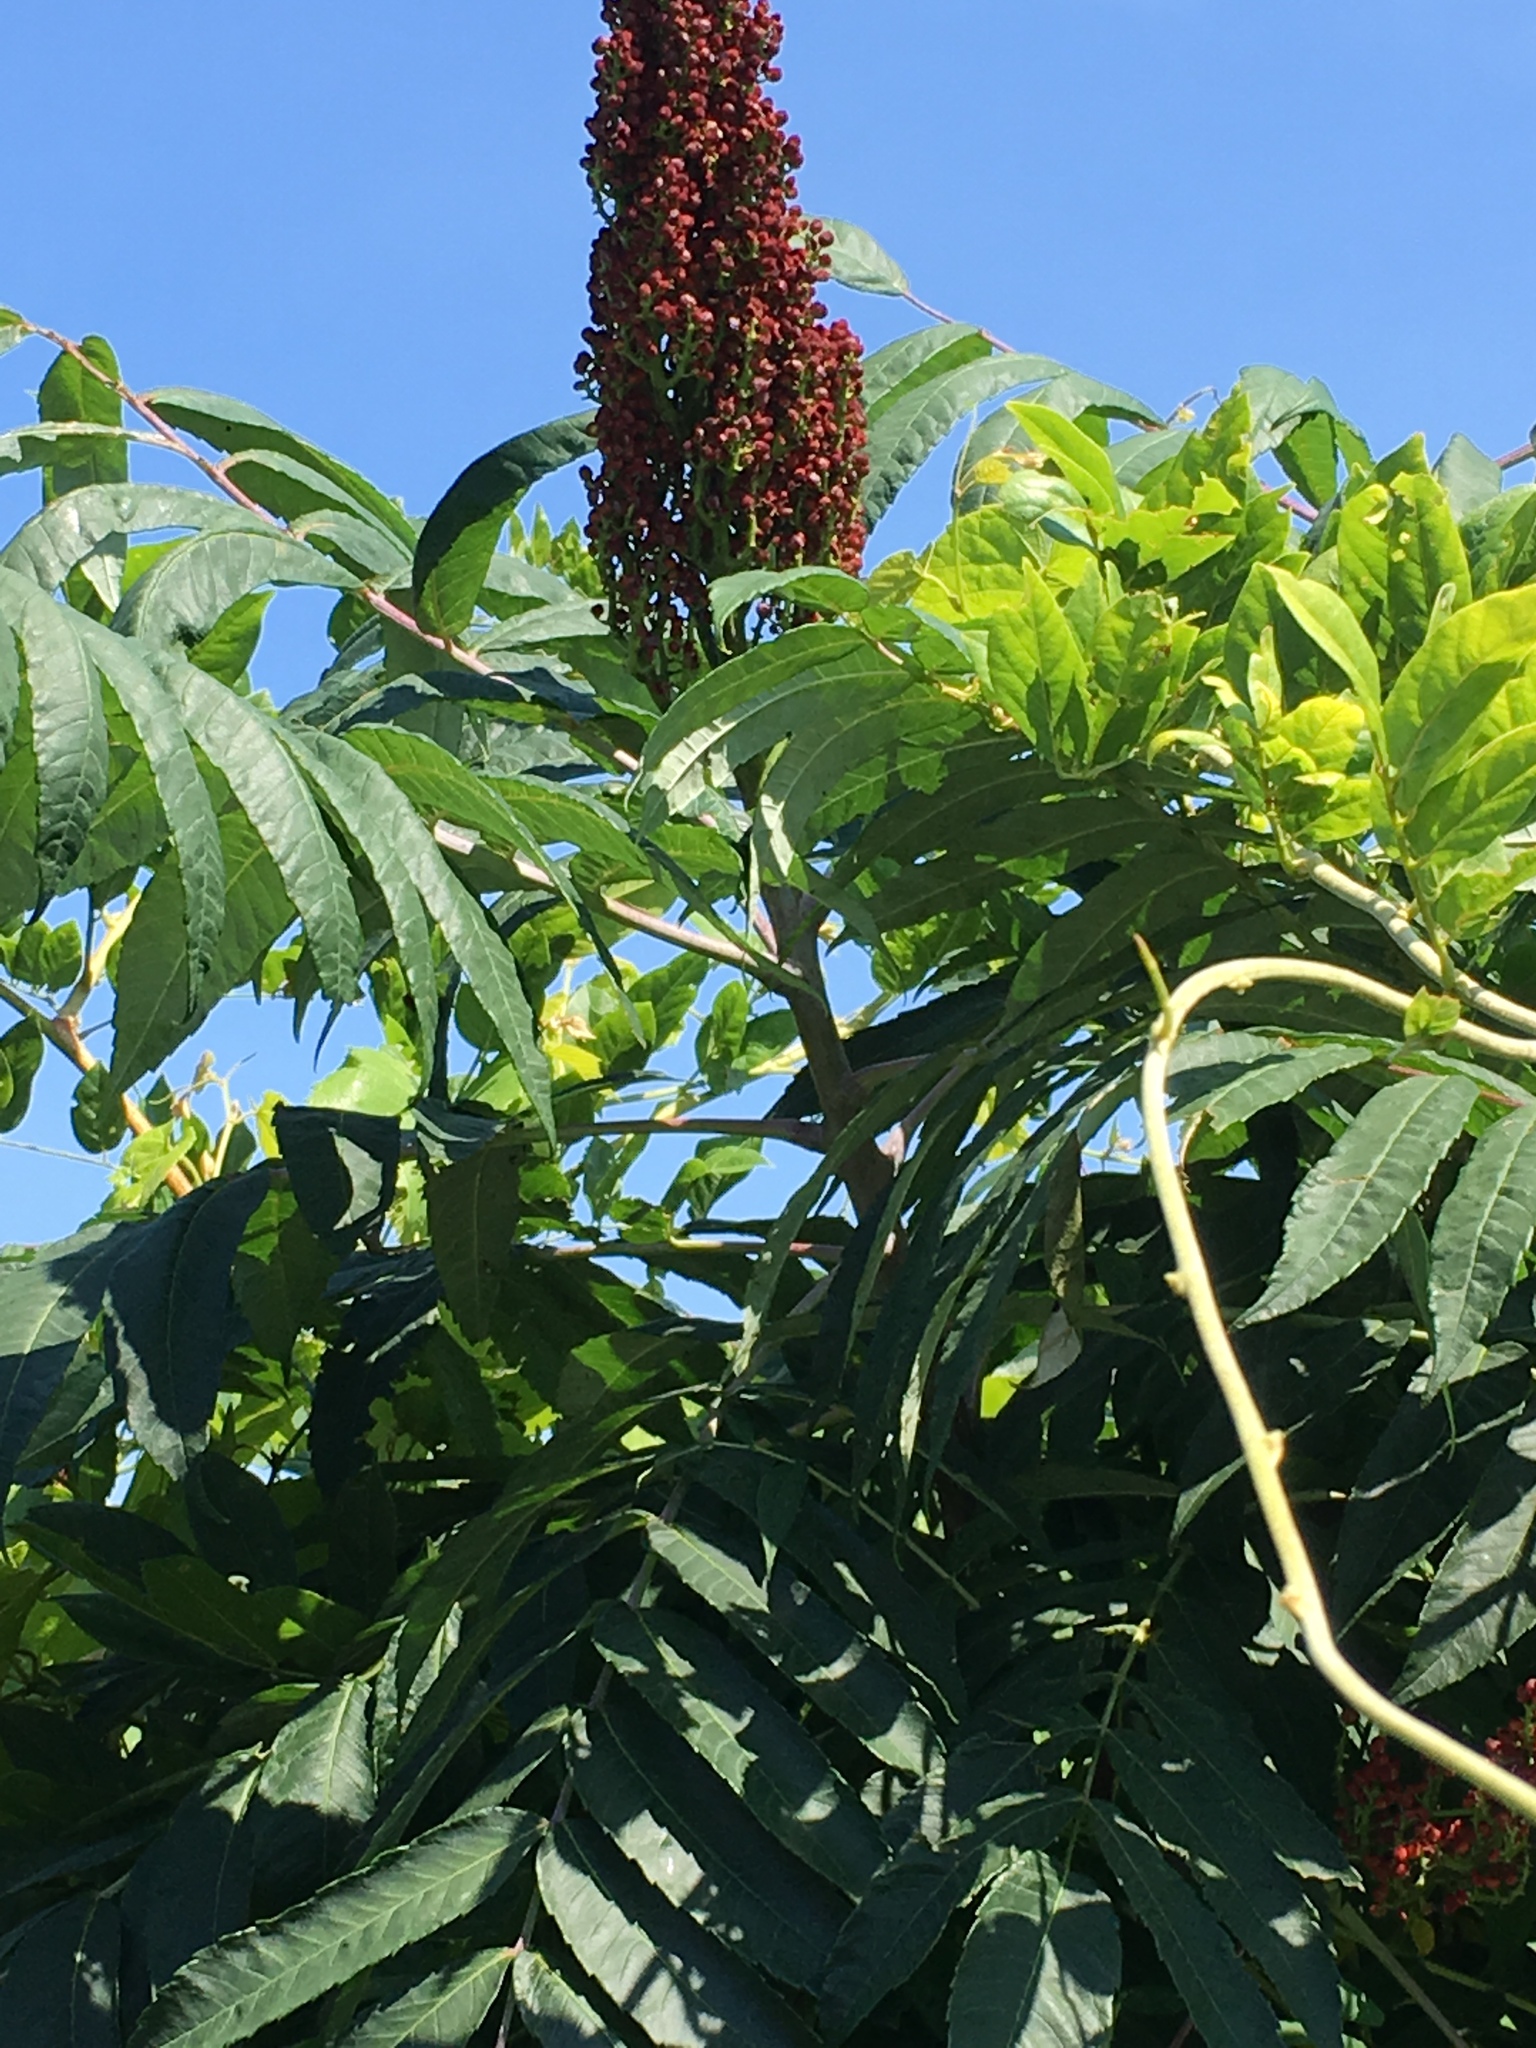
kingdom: Plantae
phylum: Tracheophyta
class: Magnoliopsida
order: Sapindales
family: Anacardiaceae
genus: Rhus
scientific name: Rhus glabra
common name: Scarlet sumac
